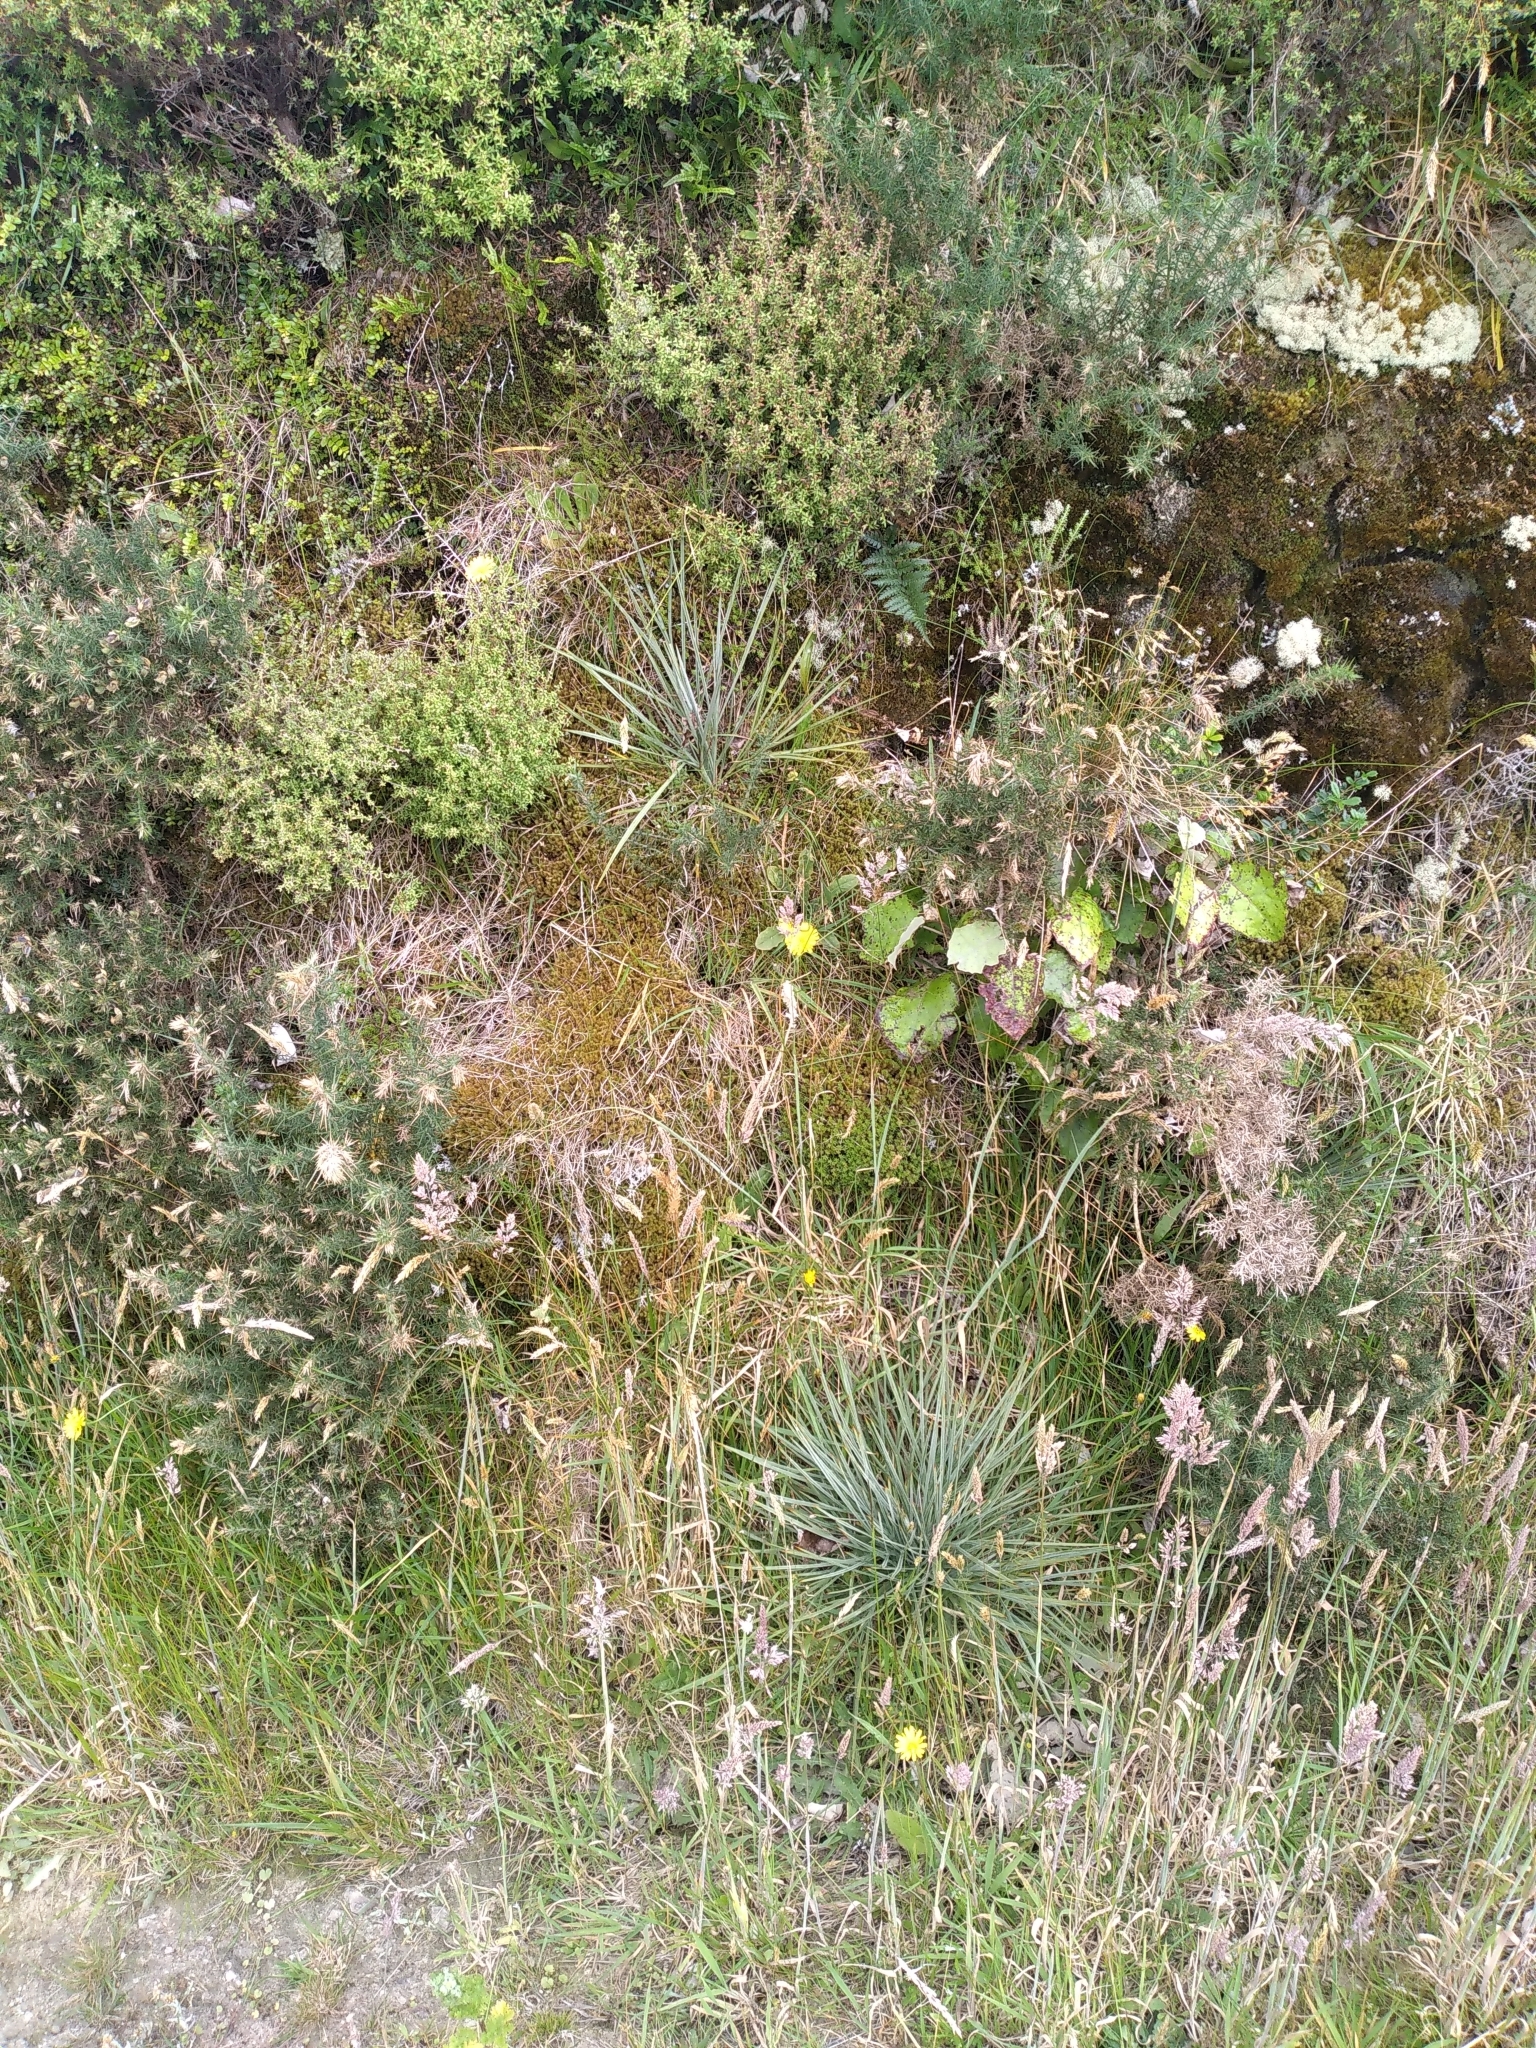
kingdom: Plantae
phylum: Tracheophyta
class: Magnoliopsida
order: Apiales
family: Apiaceae
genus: Aciphylla
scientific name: Aciphylla squarrosa
